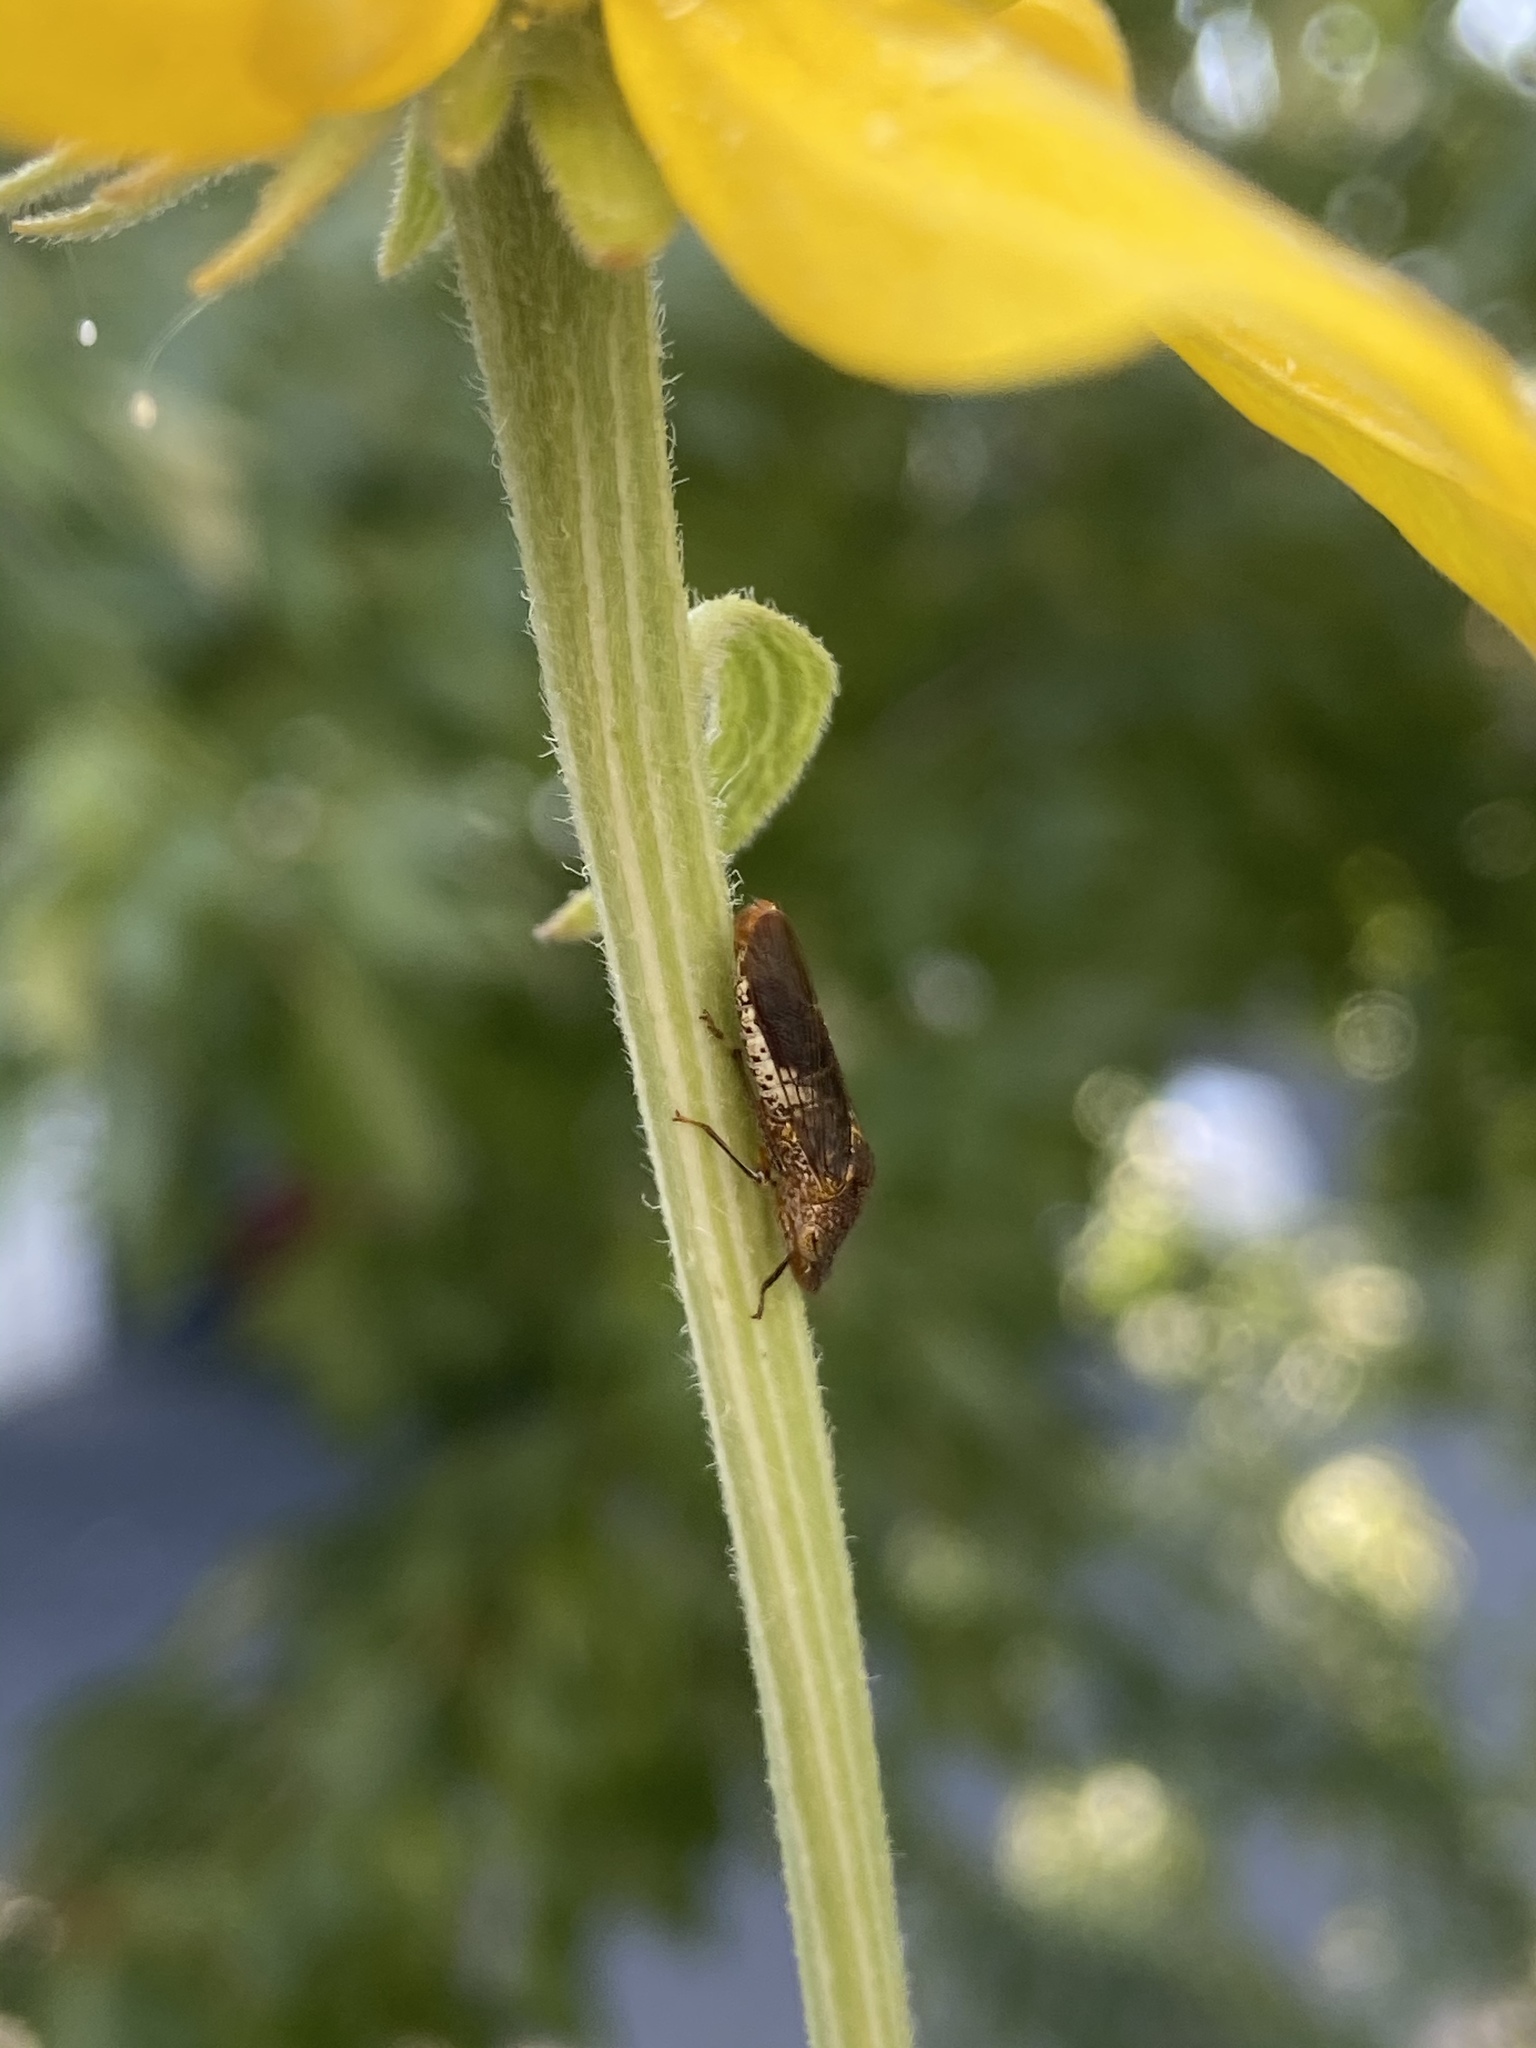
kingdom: Animalia
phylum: Arthropoda
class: Insecta
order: Hemiptera
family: Cicadellidae
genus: Homalodisca
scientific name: Homalodisca vitripennis
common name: Glassy-winged sharpshooter
